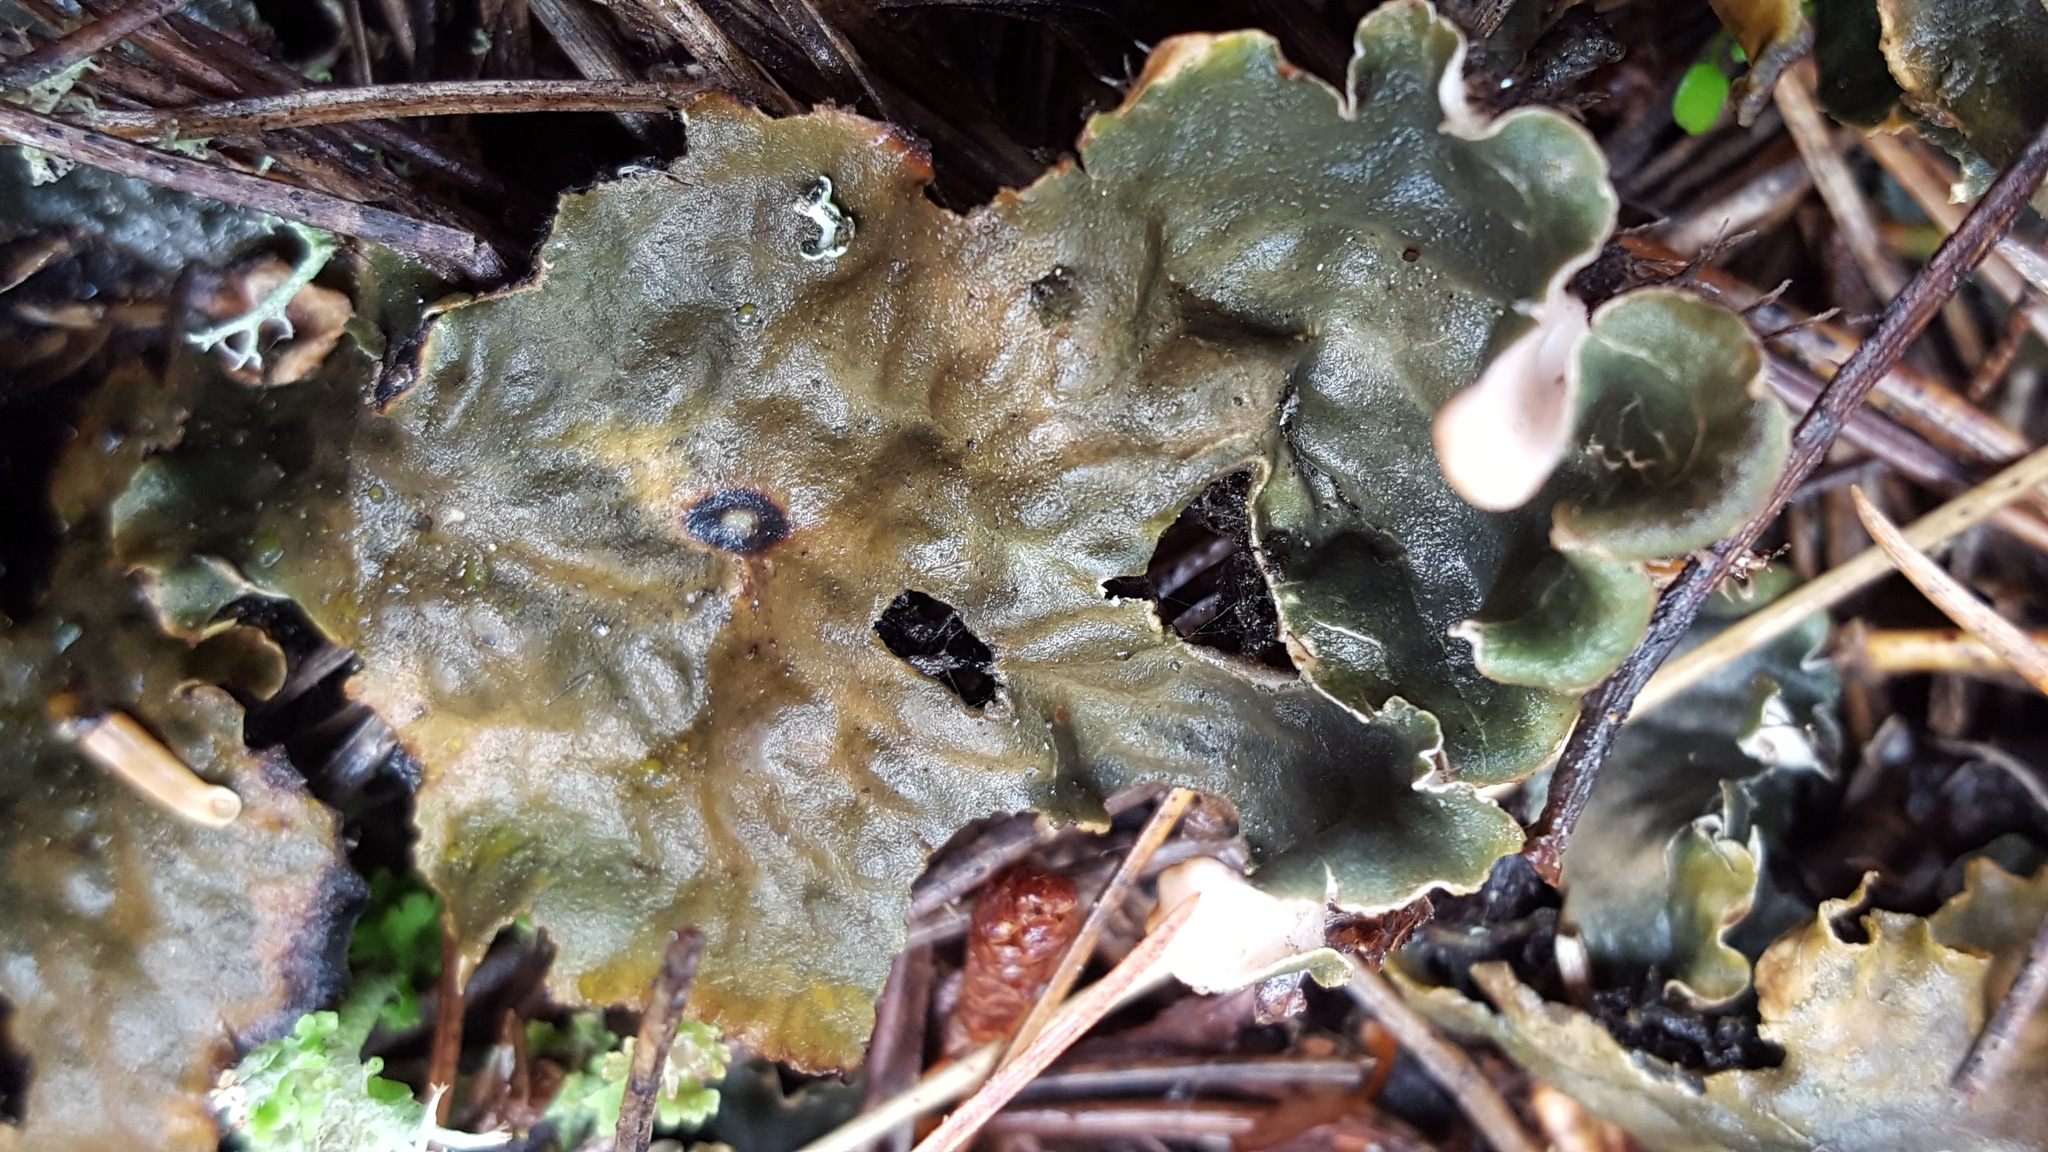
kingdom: Fungi
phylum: Ascomycota
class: Lecanoromycetes
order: Peltigerales
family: Peltigeraceae
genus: Peltigera
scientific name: Peltigera leucophlebia
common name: Ruffled freckle pelt lichen
